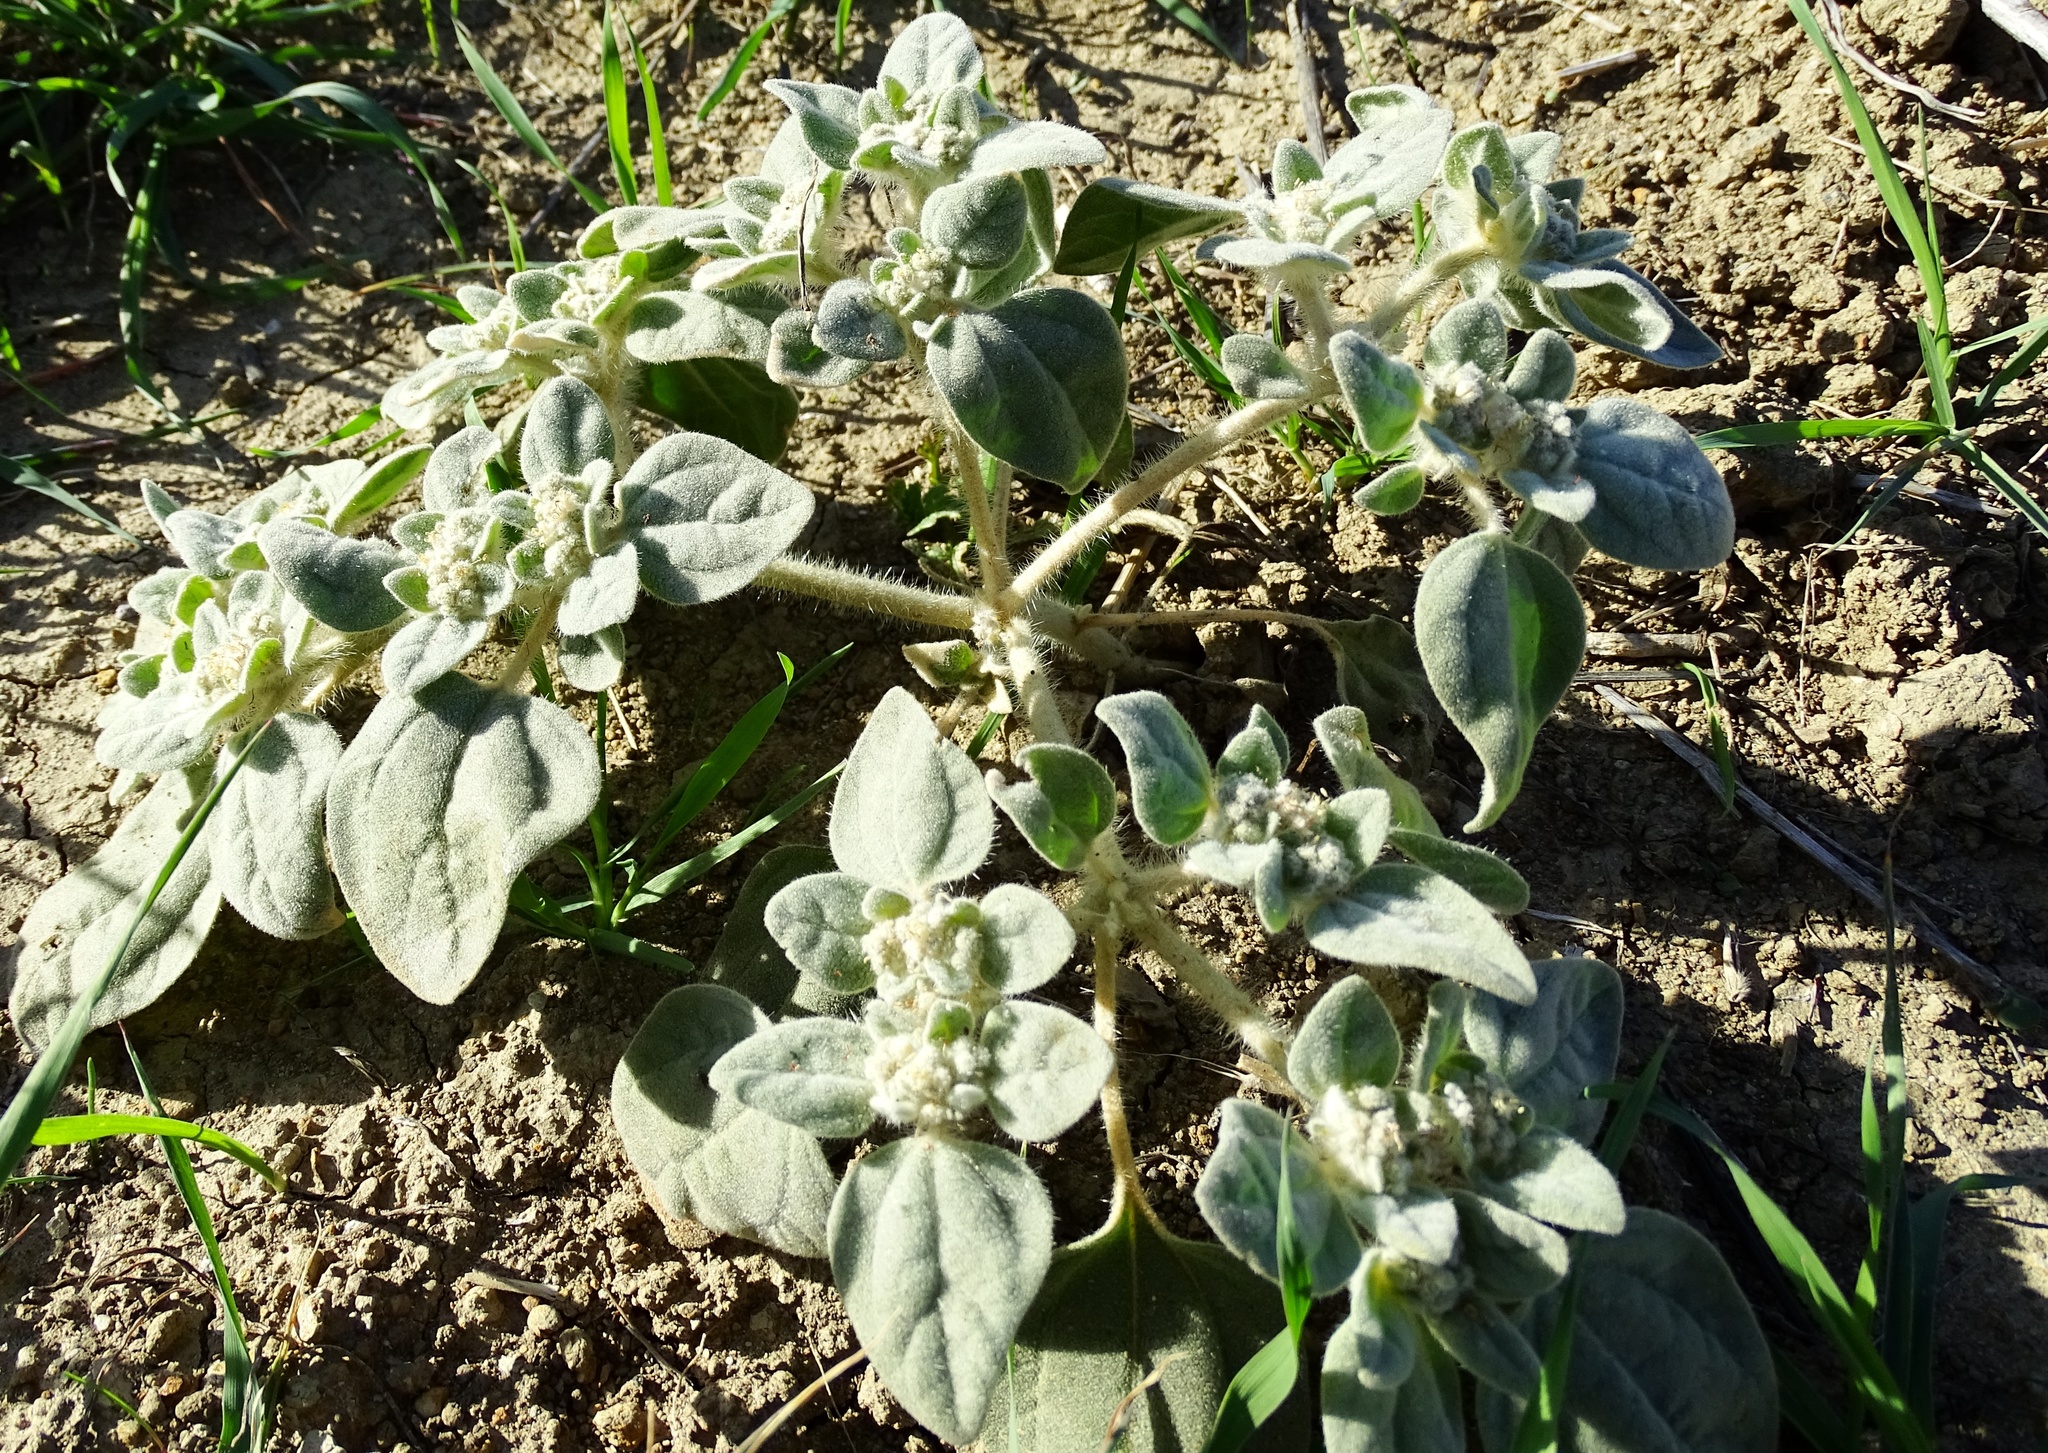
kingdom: Plantae
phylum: Tracheophyta
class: Magnoliopsida
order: Malpighiales
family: Euphorbiaceae
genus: Croton
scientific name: Croton setiger
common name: Dove weed
